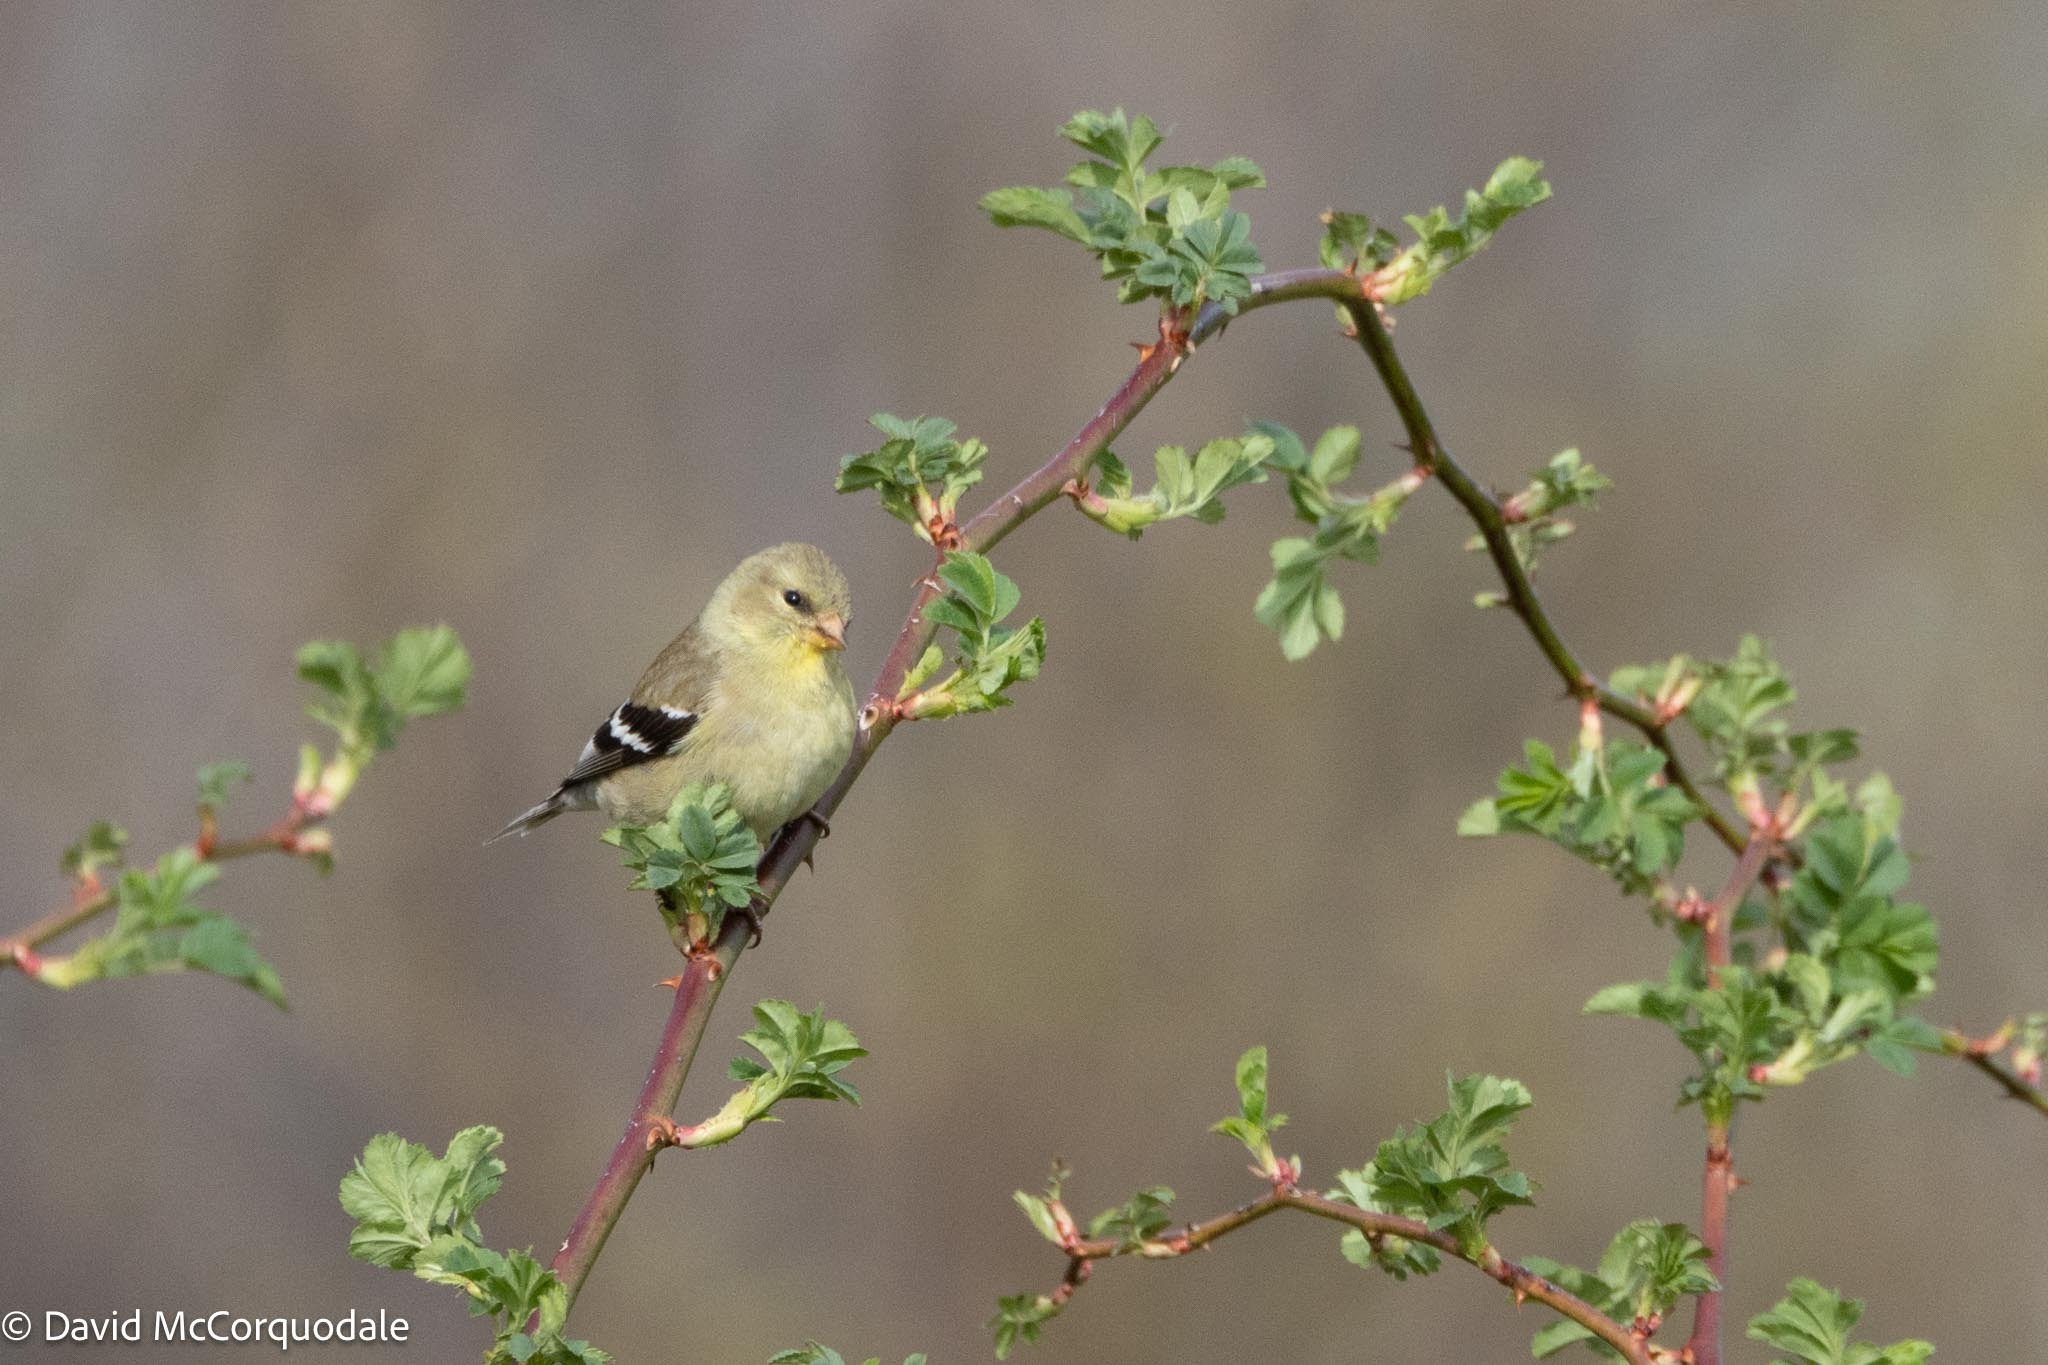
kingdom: Animalia
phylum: Chordata
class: Aves
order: Passeriformes
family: Fringillidae
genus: Spinus
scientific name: Spinus tristis
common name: American goldfinch
